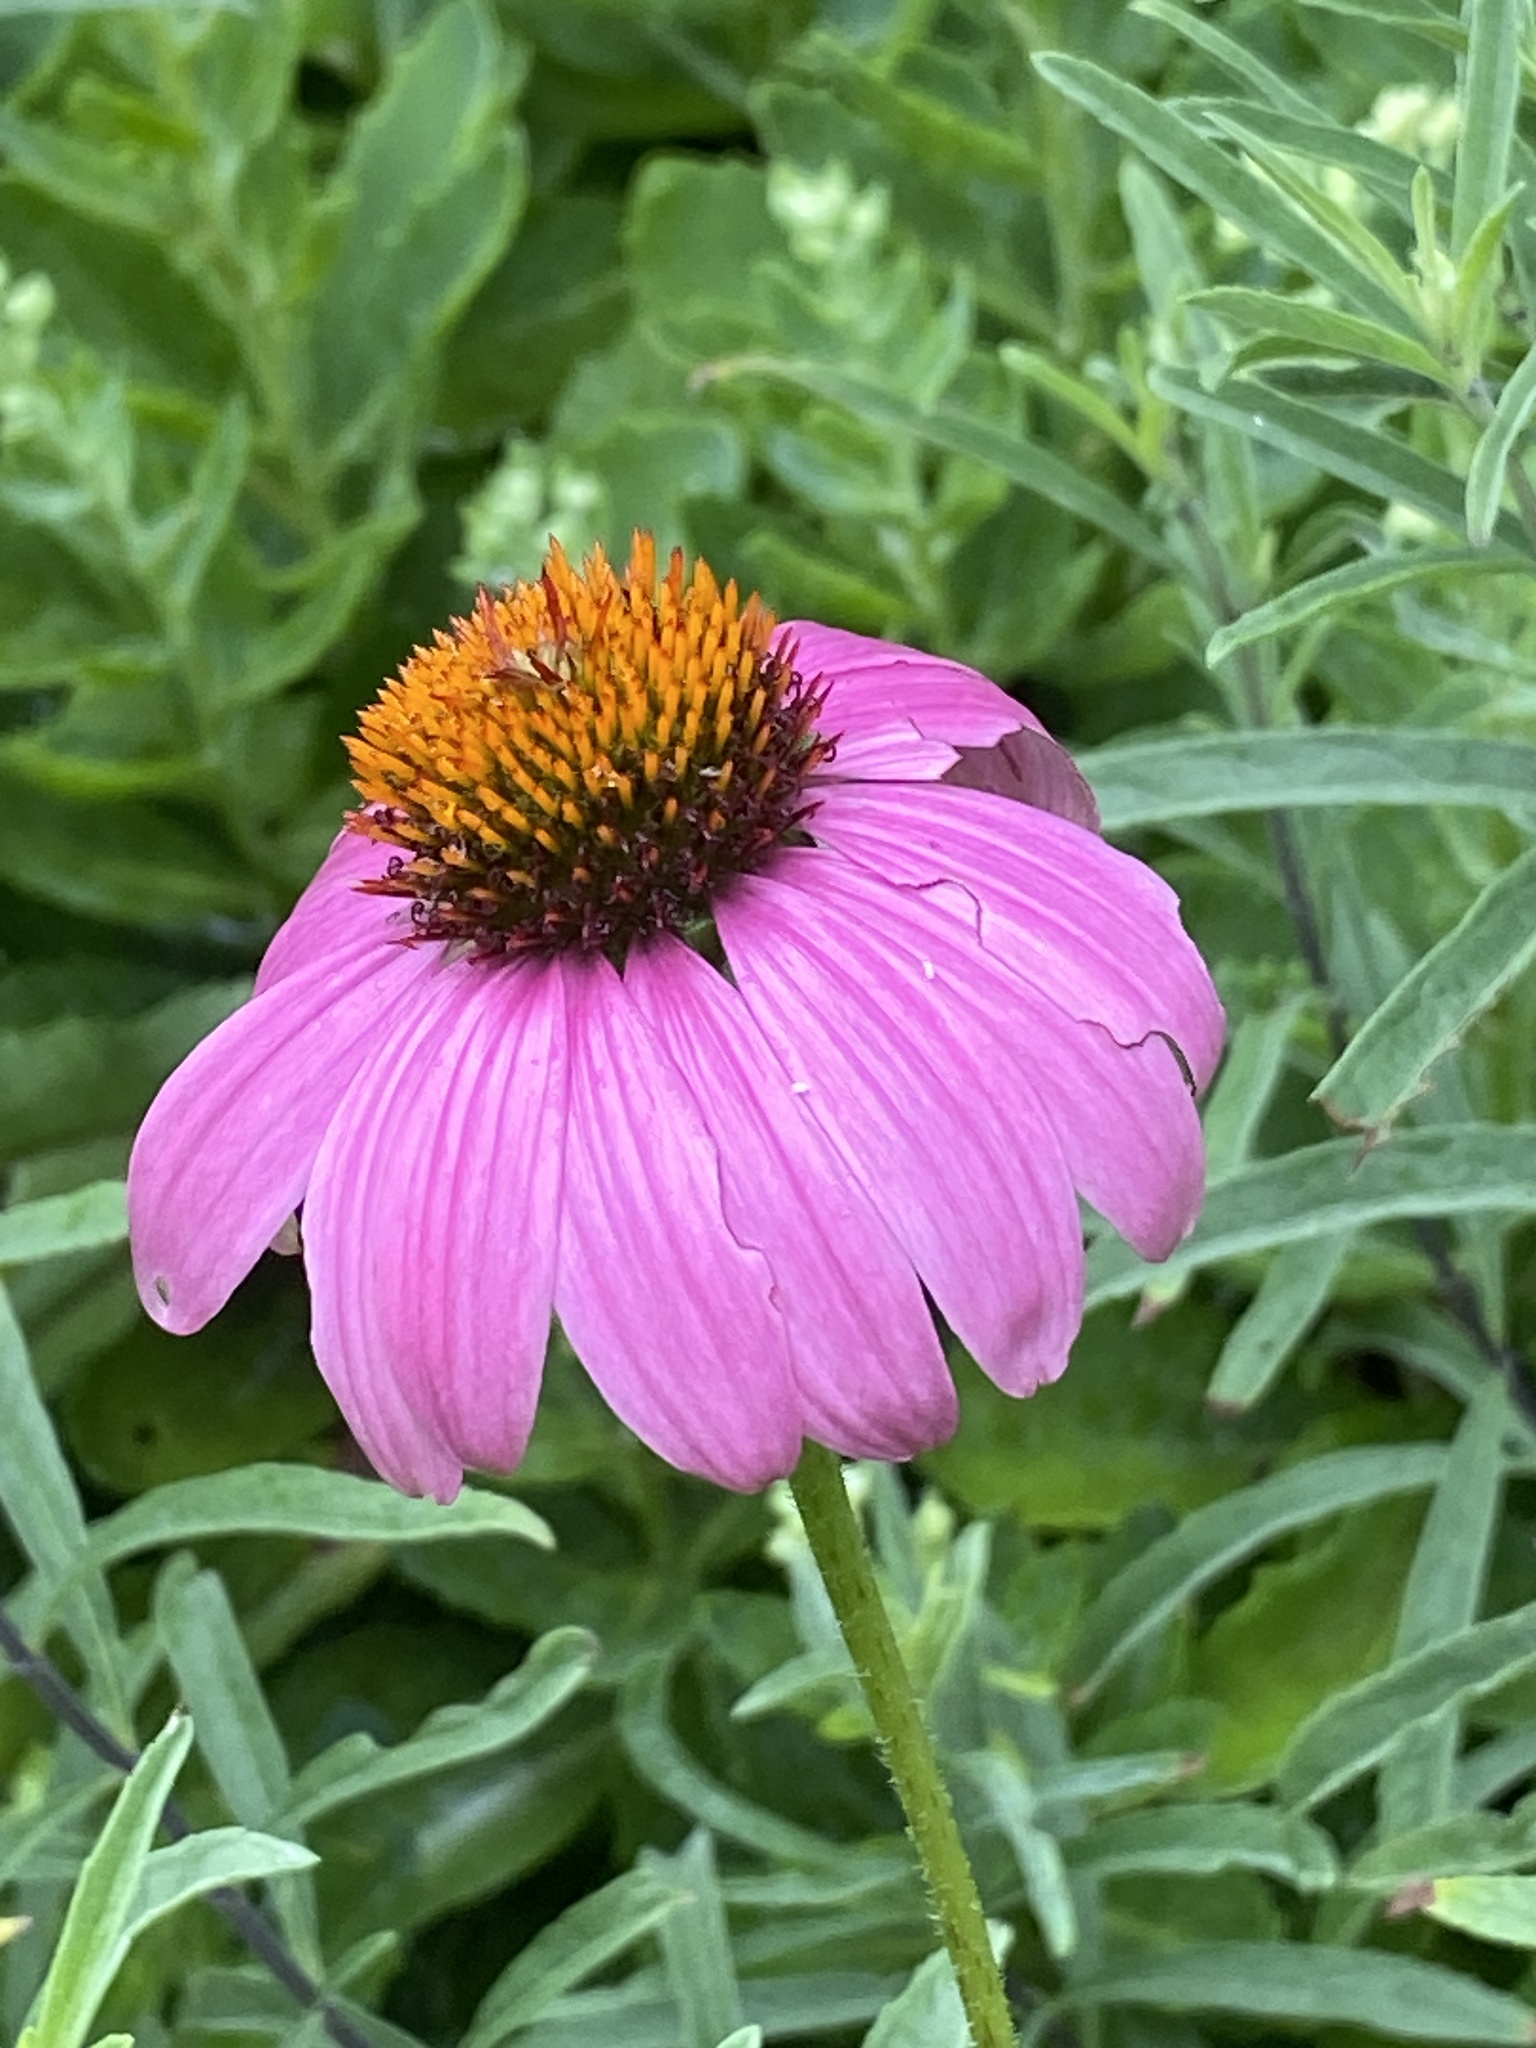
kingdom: Plantae
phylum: Tracheophyta
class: Magnoliopsida
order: Asterales
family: Asteraceae
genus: Echinacea
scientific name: Echinacea purpurea
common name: Broad-leaved purple coneflower
